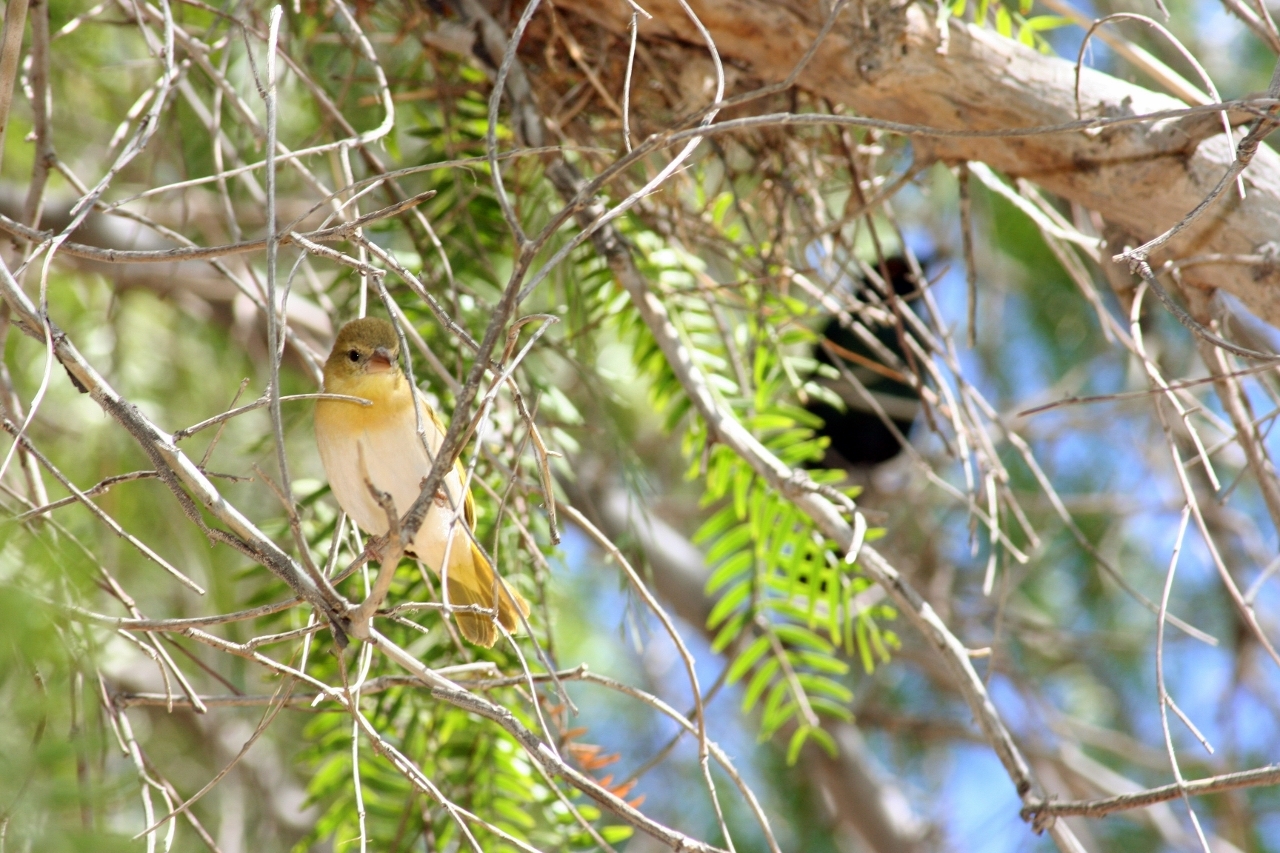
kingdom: Animalia
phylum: Chordata
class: Aves
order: Passeriformes
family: Ploceidae
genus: Ploceus
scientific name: Ploceus velatus
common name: Southern masked weaver
